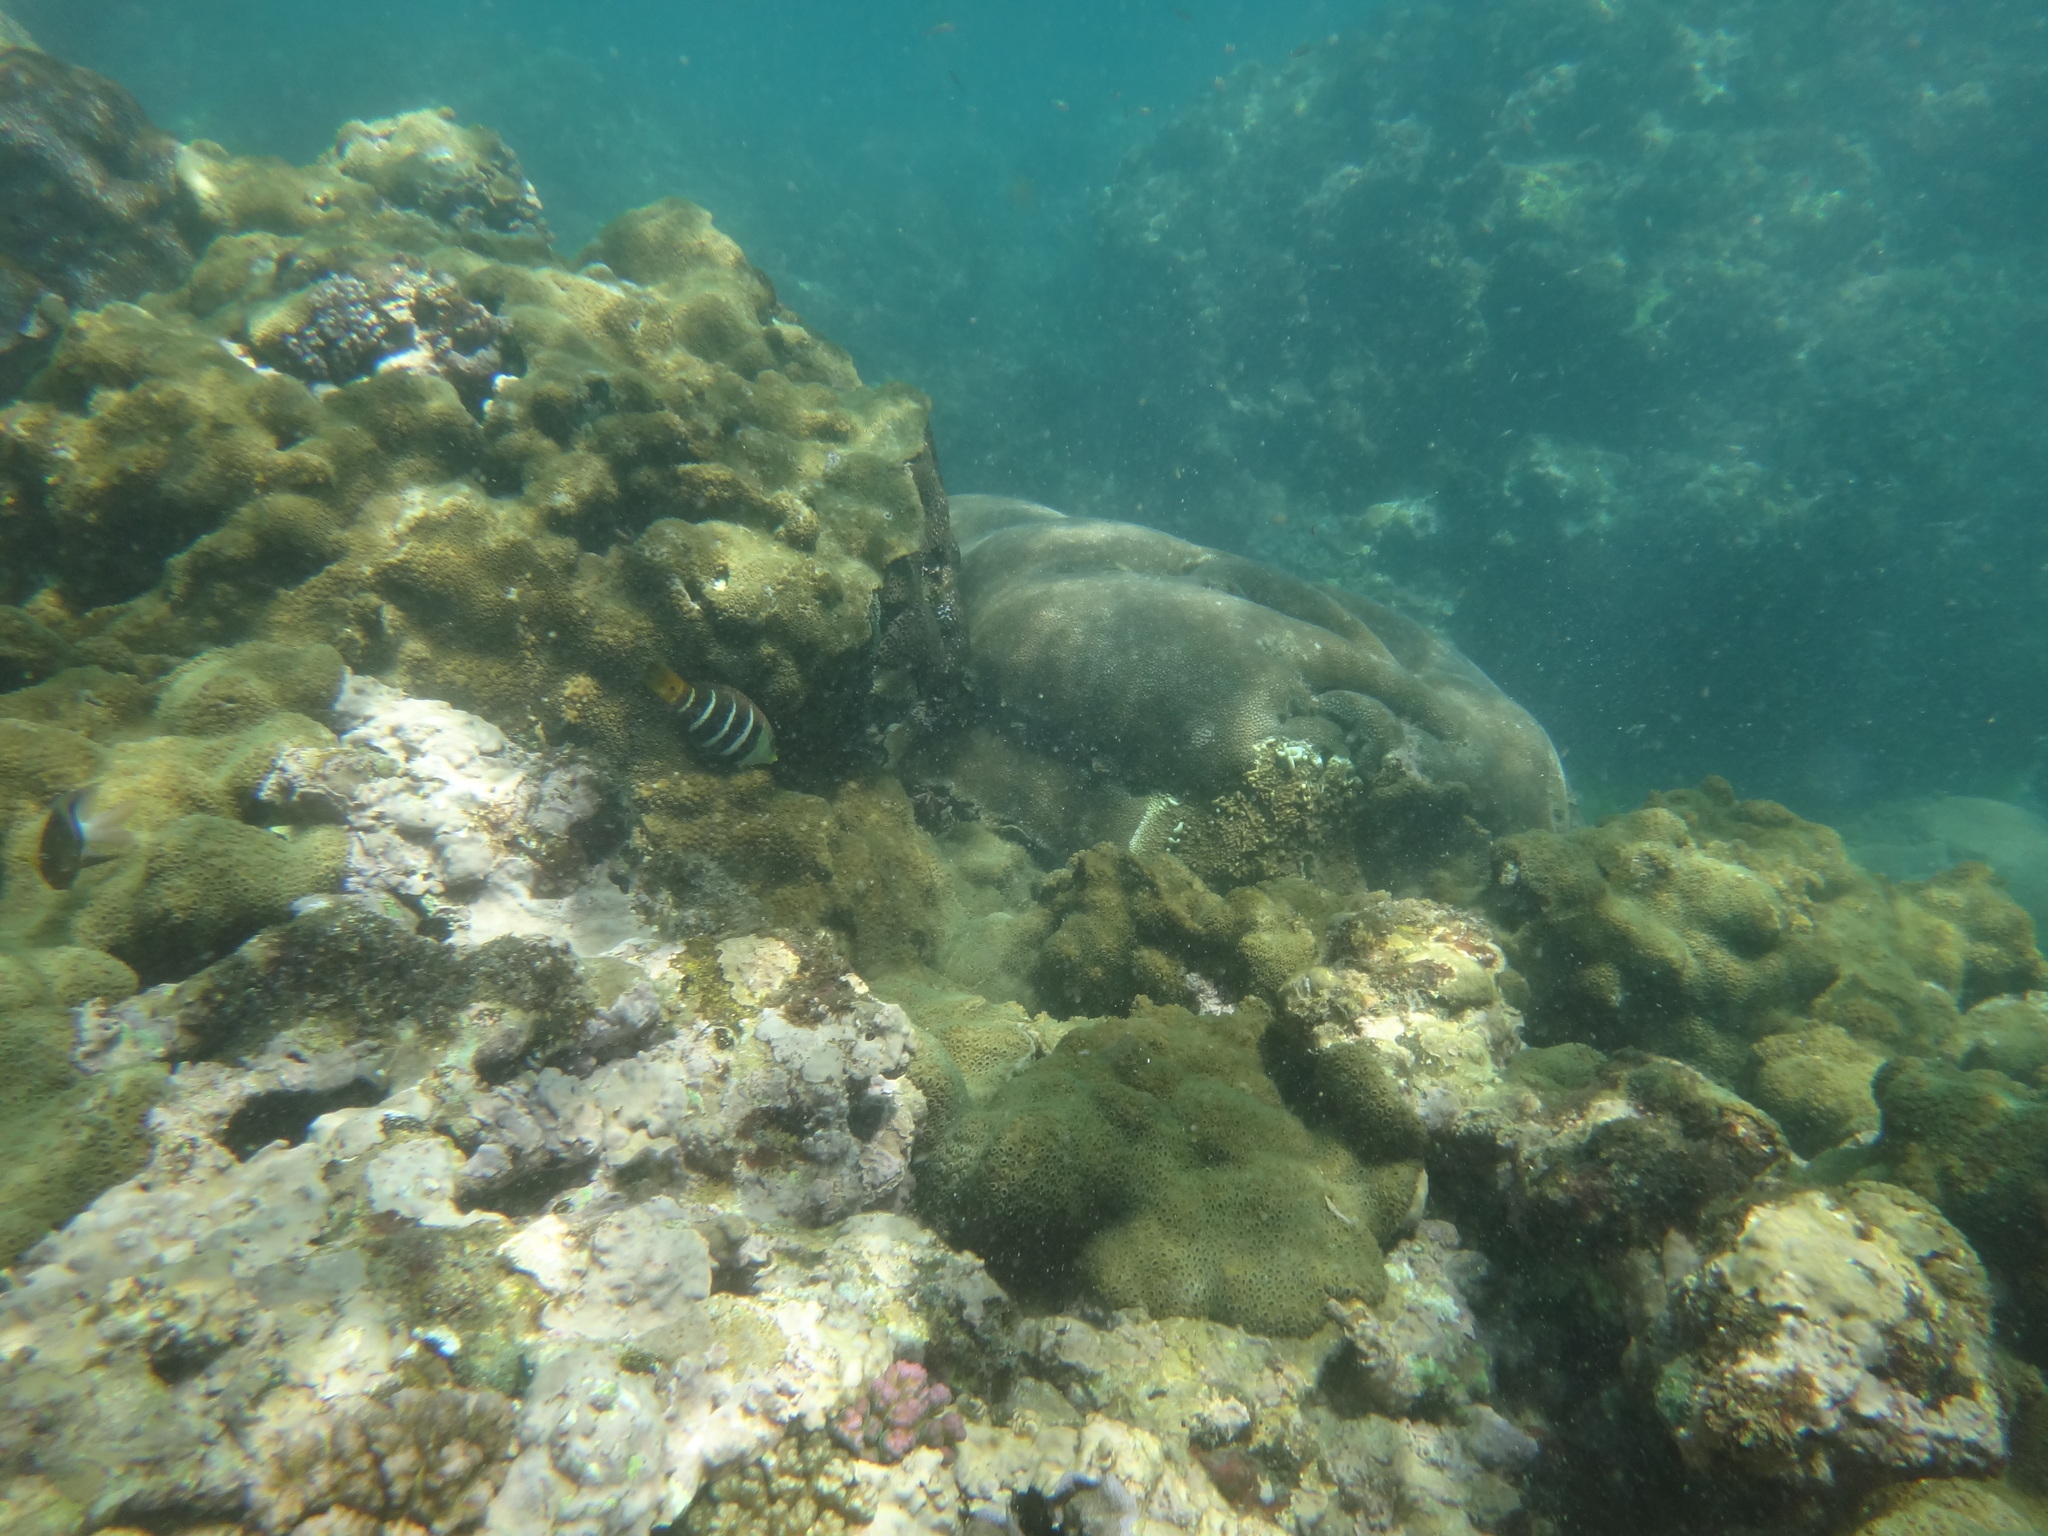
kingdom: Animalia
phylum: Chordata
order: Perciformes
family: Labridae
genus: Hemigymnus
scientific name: Hemigymnus fasciatus
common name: Barred thicklip
